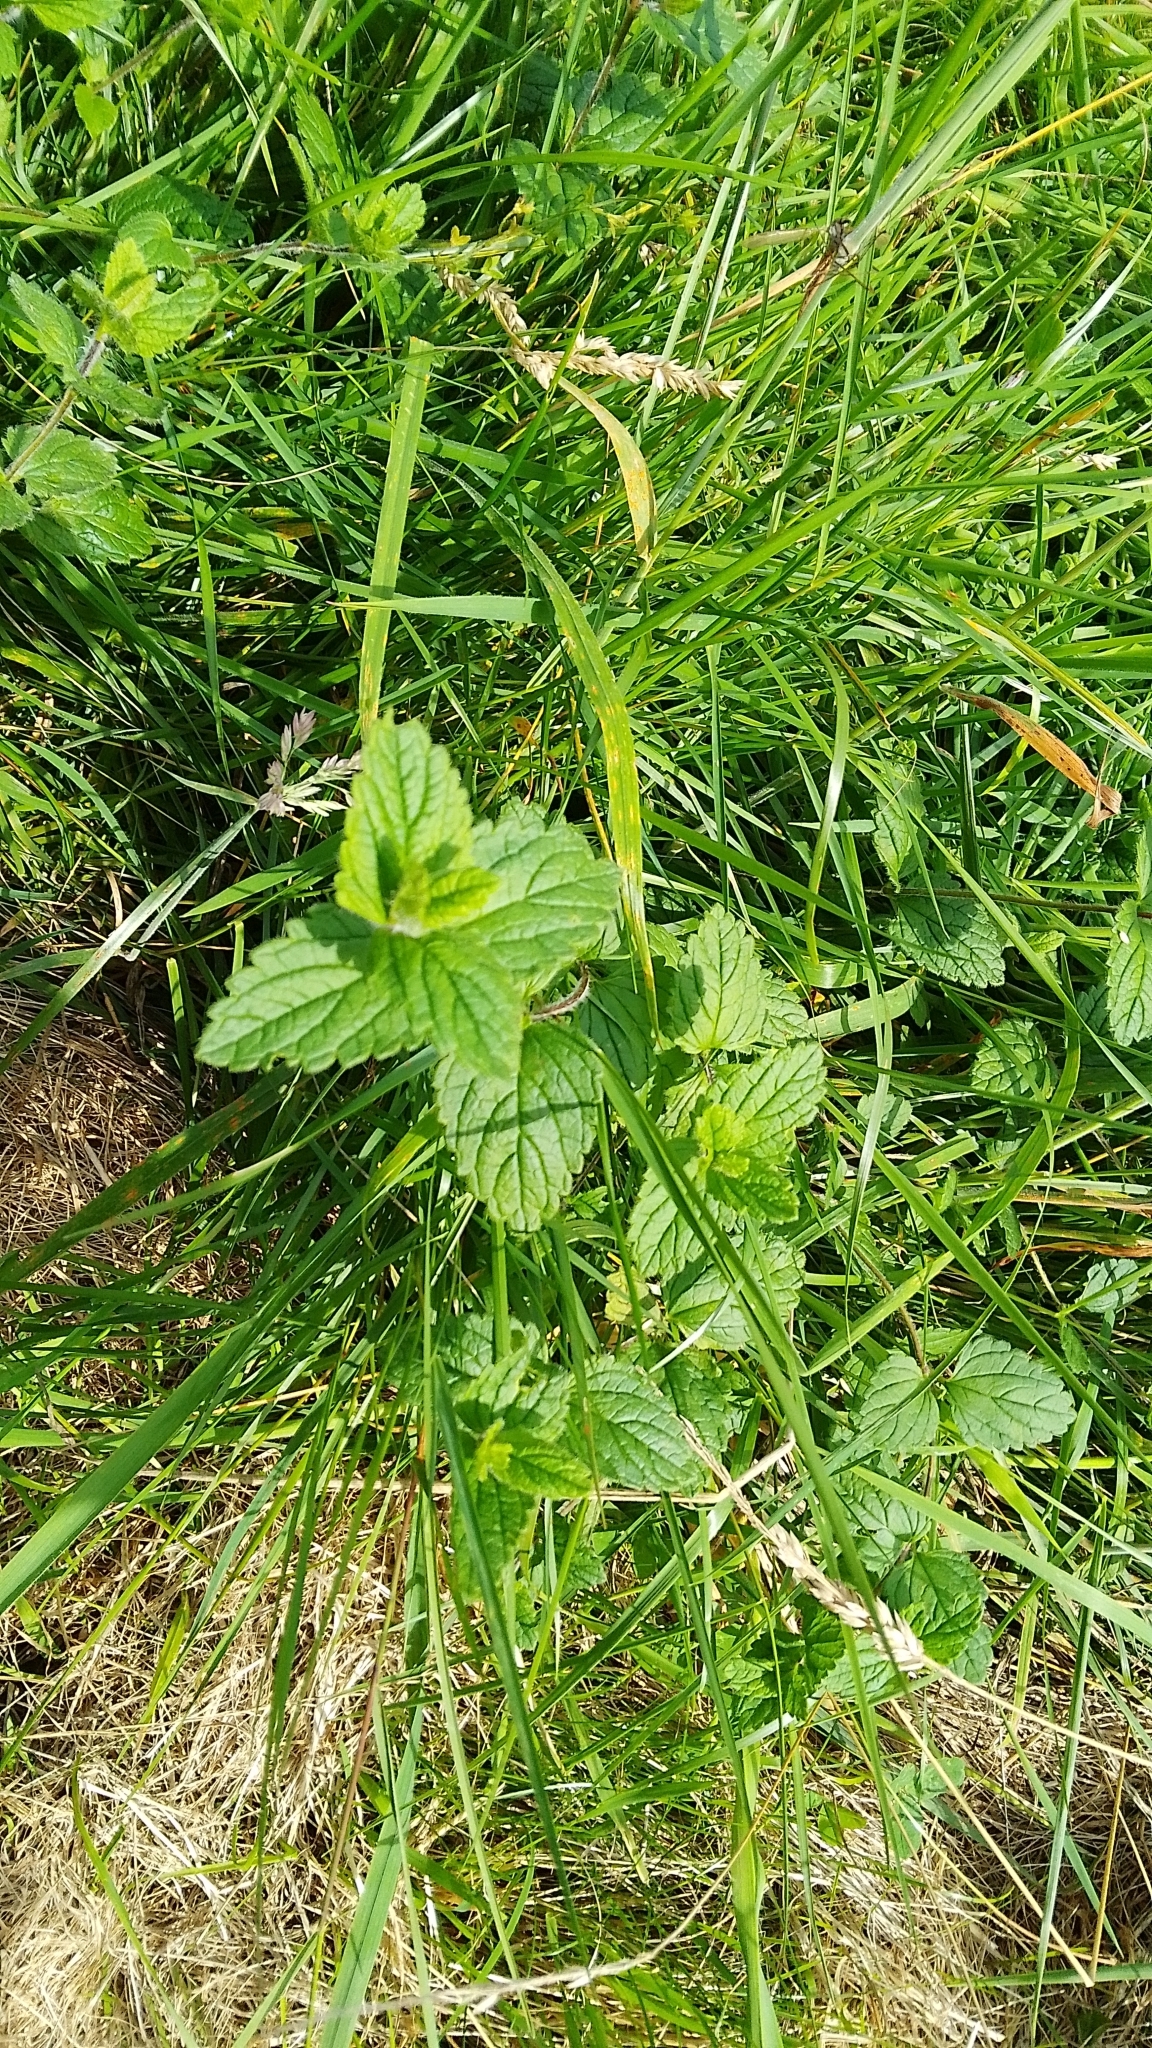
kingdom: Plantae
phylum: Tracheophyta
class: Magnoliopsida
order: Lamiales
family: Plantaginaceae
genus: Veronica
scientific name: Veronica chamaedrys
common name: Germander speedwell
